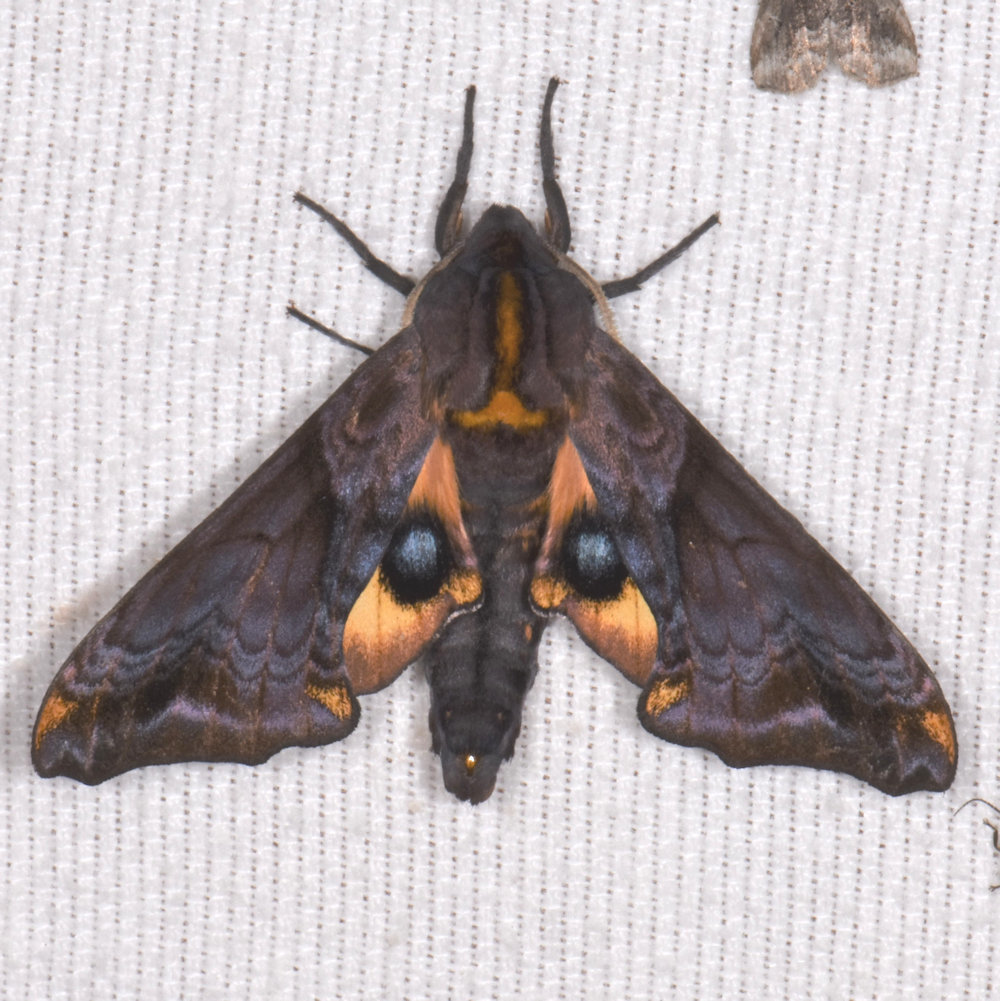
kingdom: Animalia
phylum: Arthropoda
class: Insecta
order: Lepidoptera
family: Sphingidae
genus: Paonias
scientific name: Paonias myops
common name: Small-eyed sphinx
